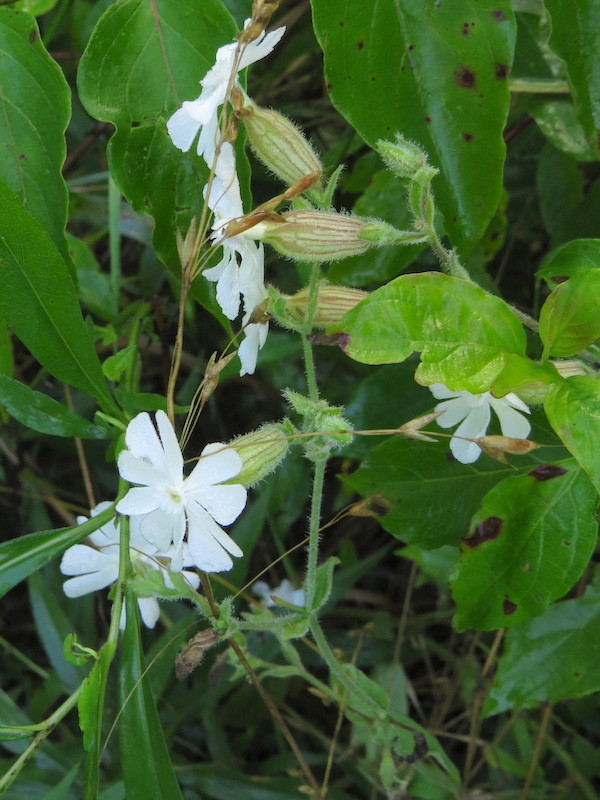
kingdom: Plantae
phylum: Tracheophyta
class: Magnoliopsida
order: Caryophyllales
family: Caryophyllaceae
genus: Silene
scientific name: Silene latifolia
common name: White campion
